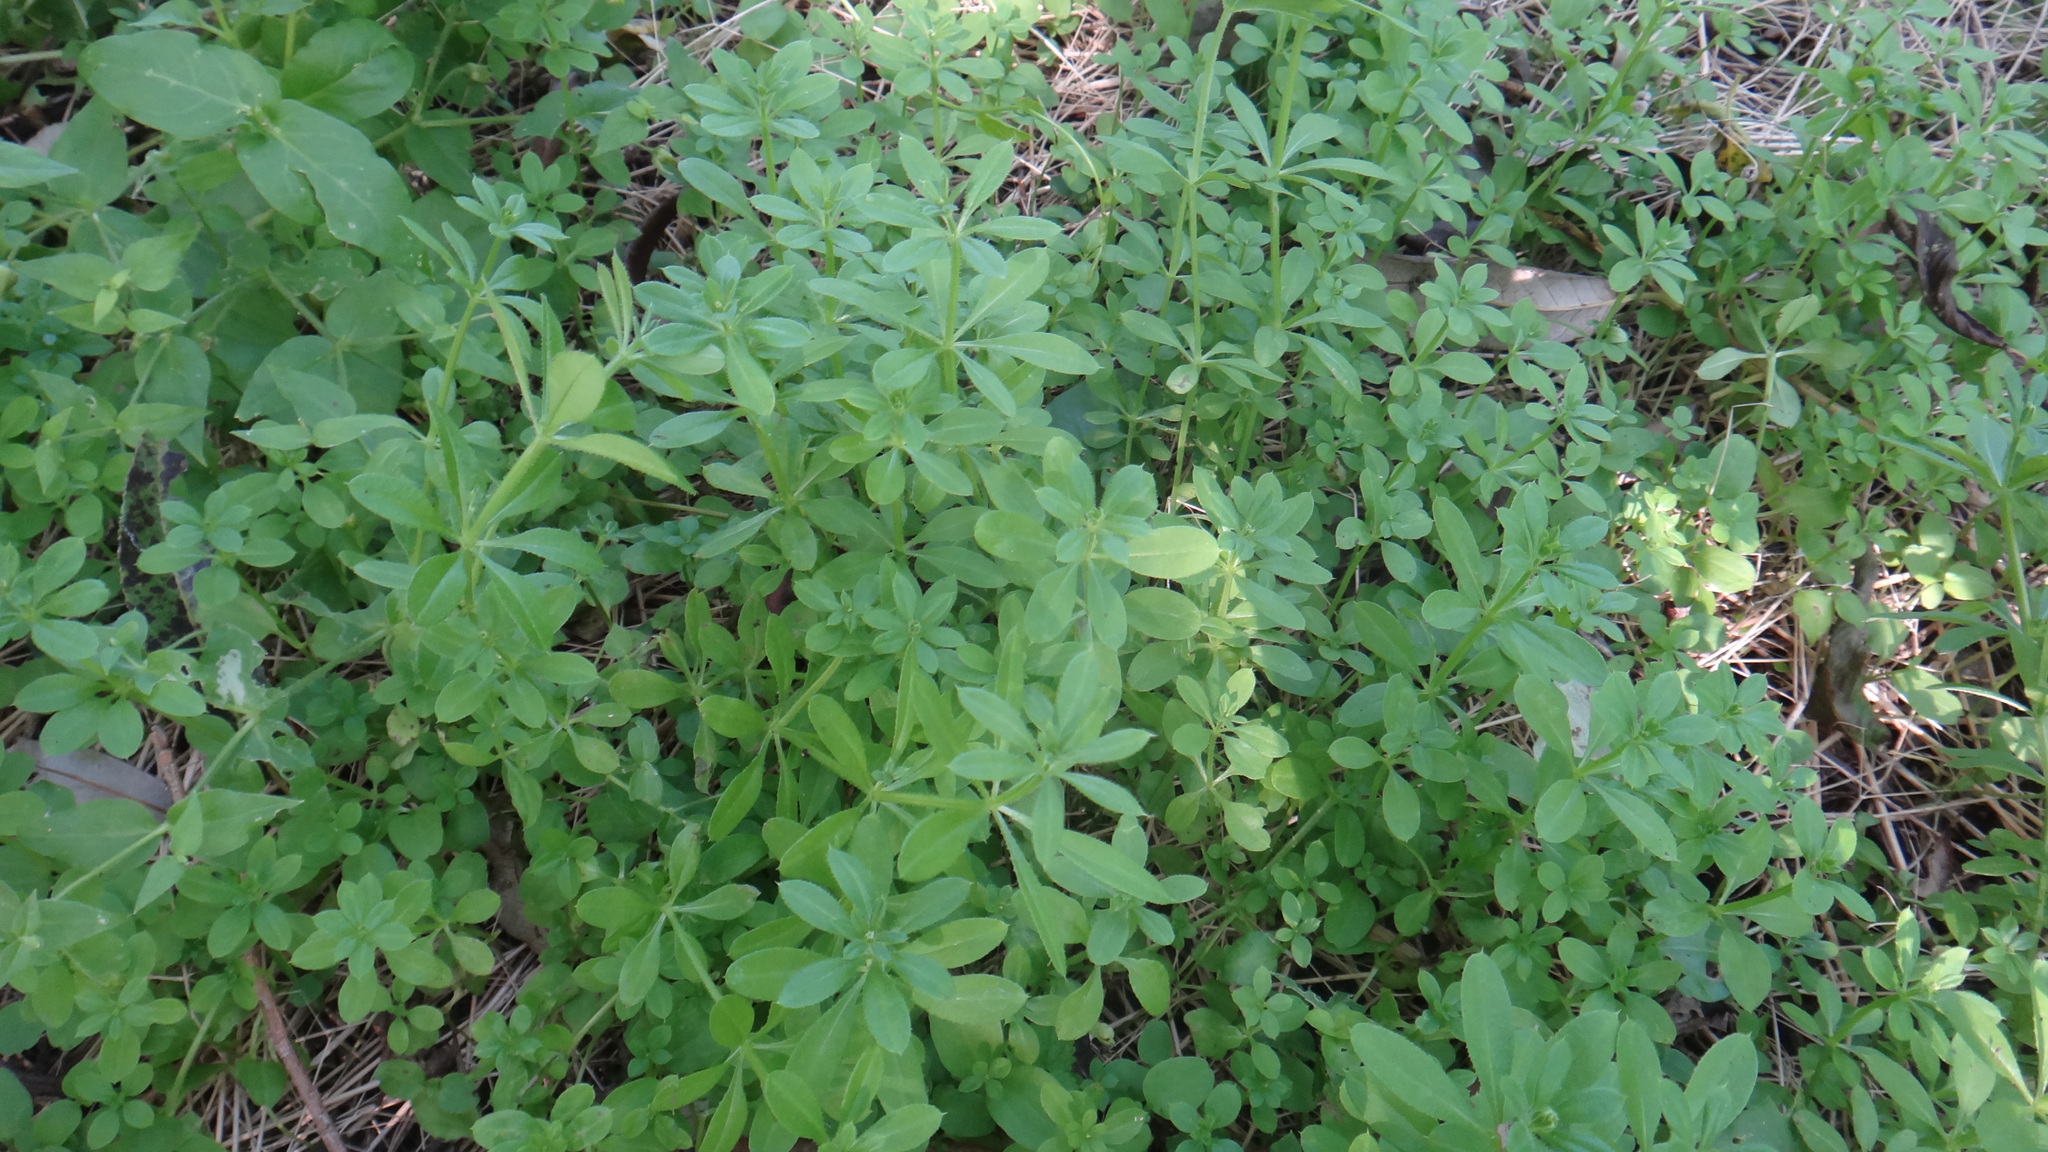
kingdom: Plantae
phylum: Tracheophyta
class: Magnoliopsida
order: Gentianales
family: Rubiaceae
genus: Galium
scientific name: Galium aparine
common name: Cleavers
